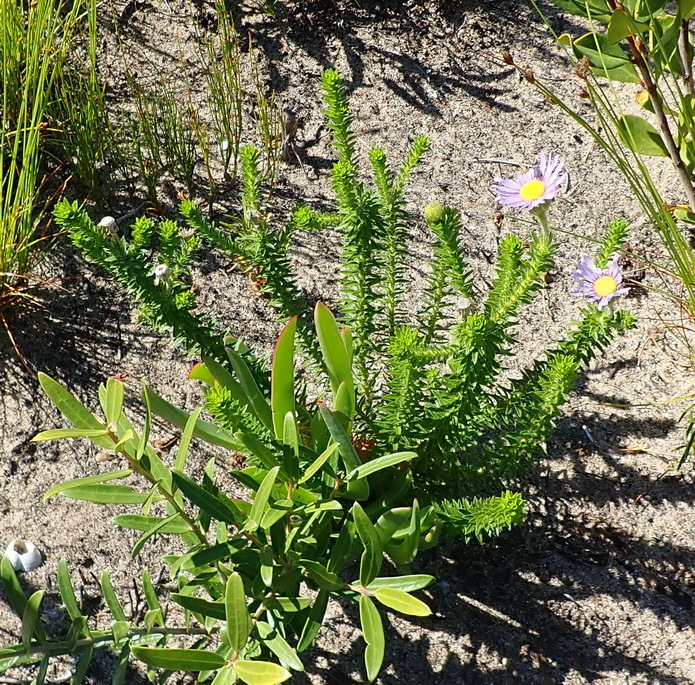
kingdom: Plantae
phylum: Tracheophyta
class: Magnoliopsida
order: Asterales
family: Asteraceae
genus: Felicia
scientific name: Felicia echinata
